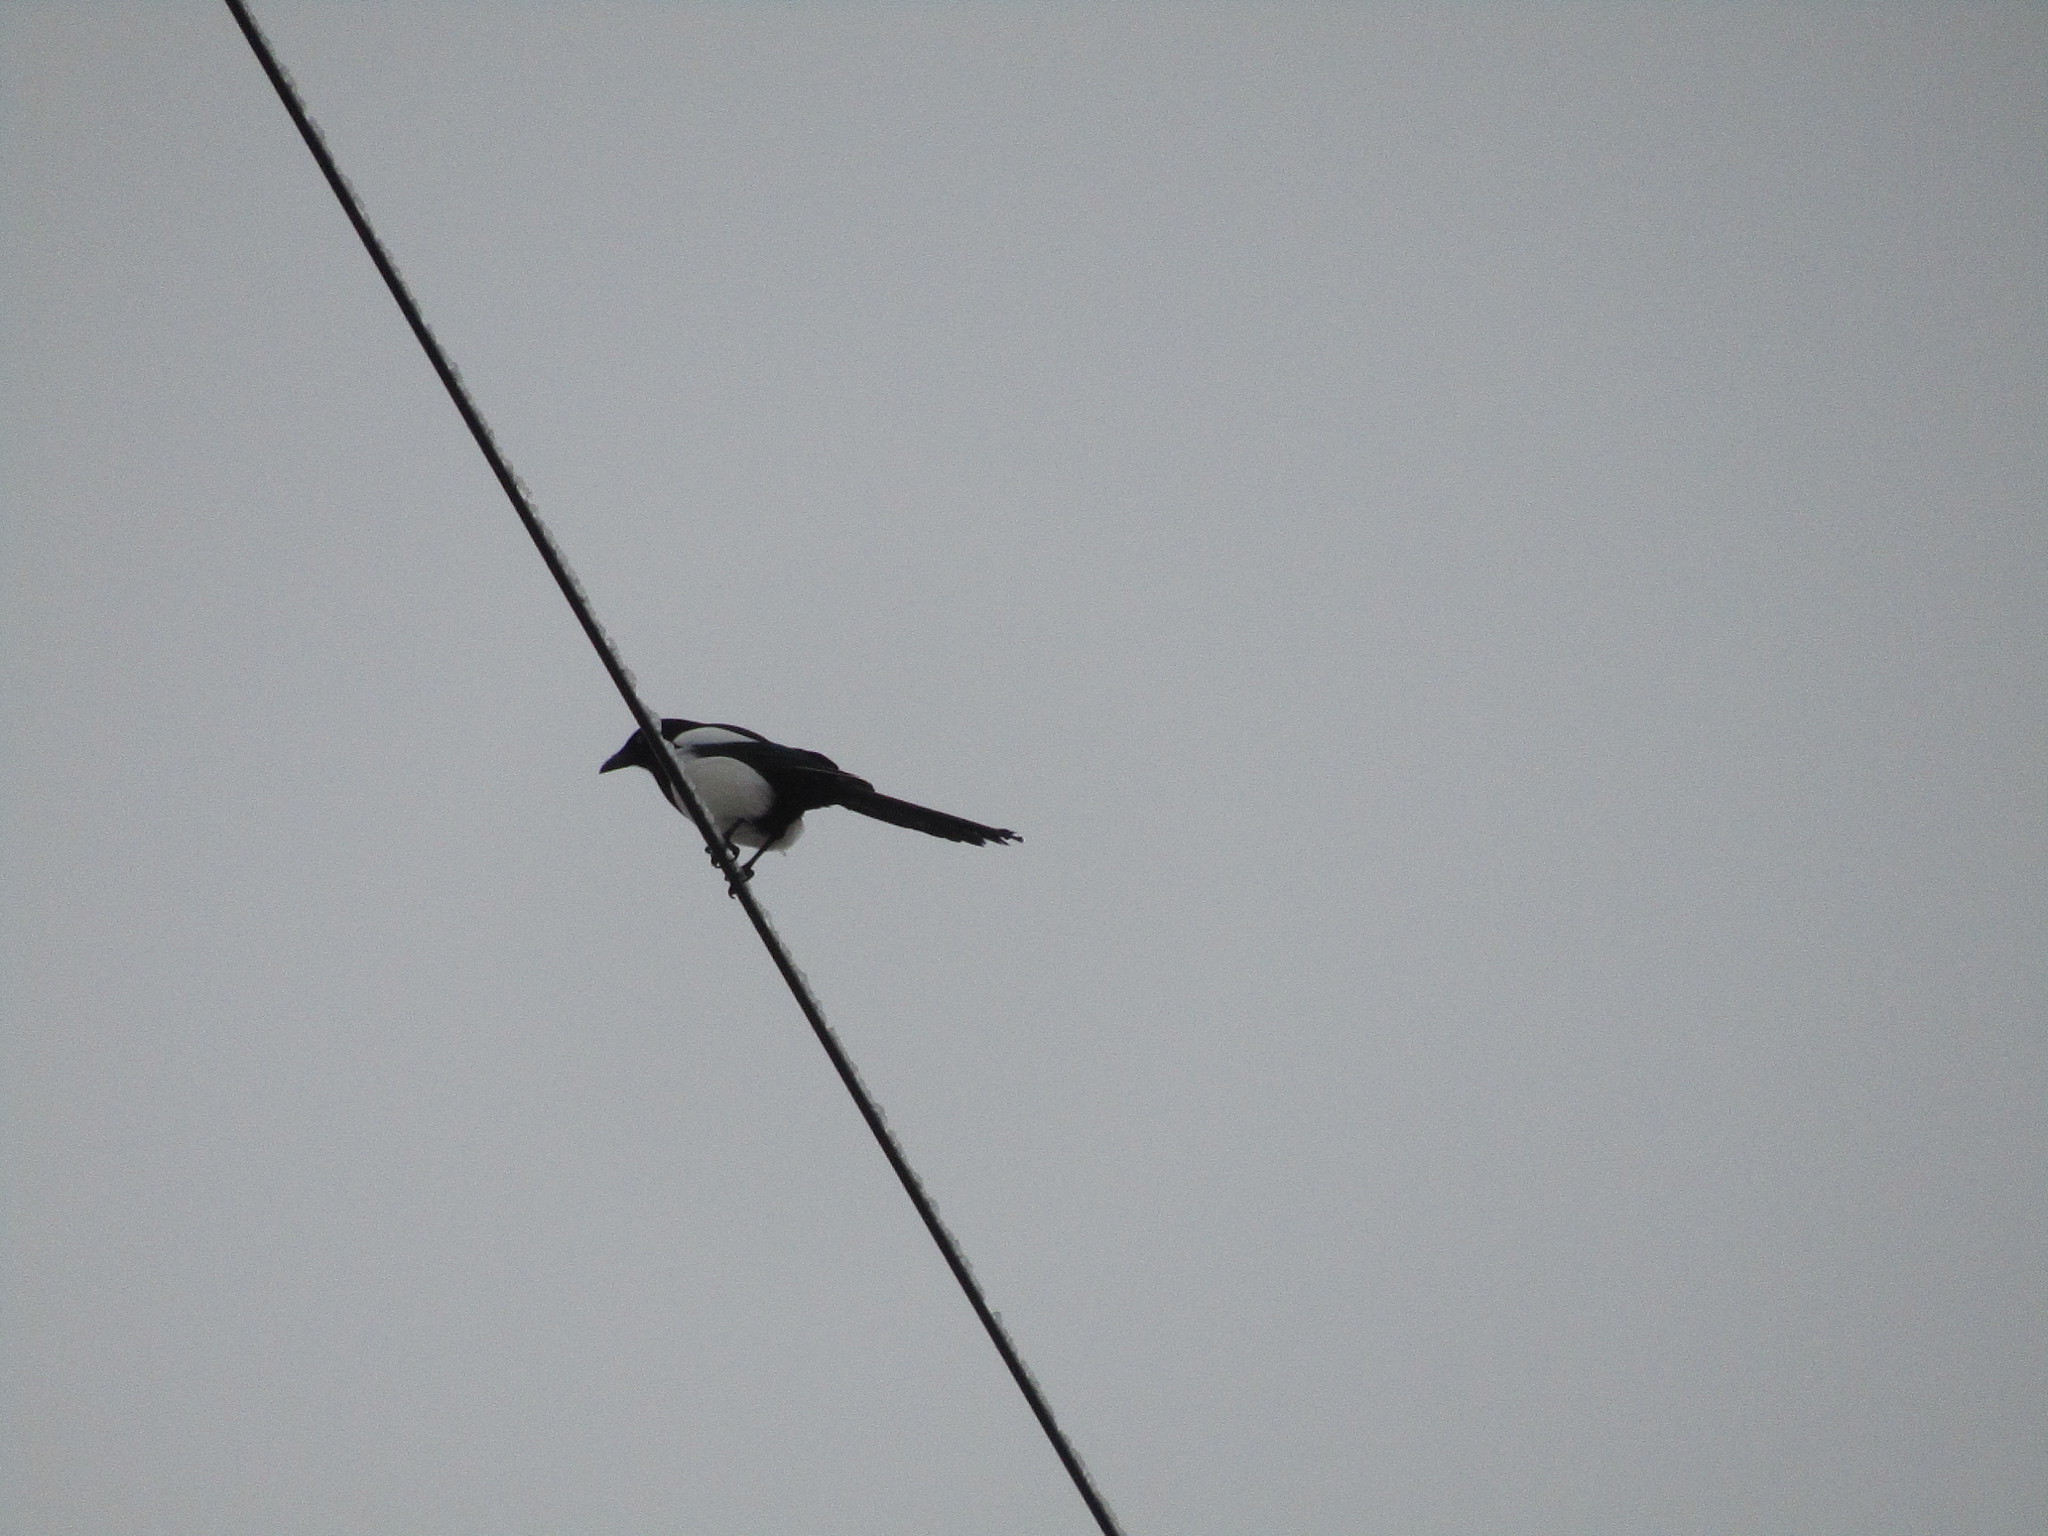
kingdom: Animalia
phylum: Chordata
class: Aves
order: Passeriformes
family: Corvidae
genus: Pica
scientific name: Pica pica
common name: Eurasian magpie
